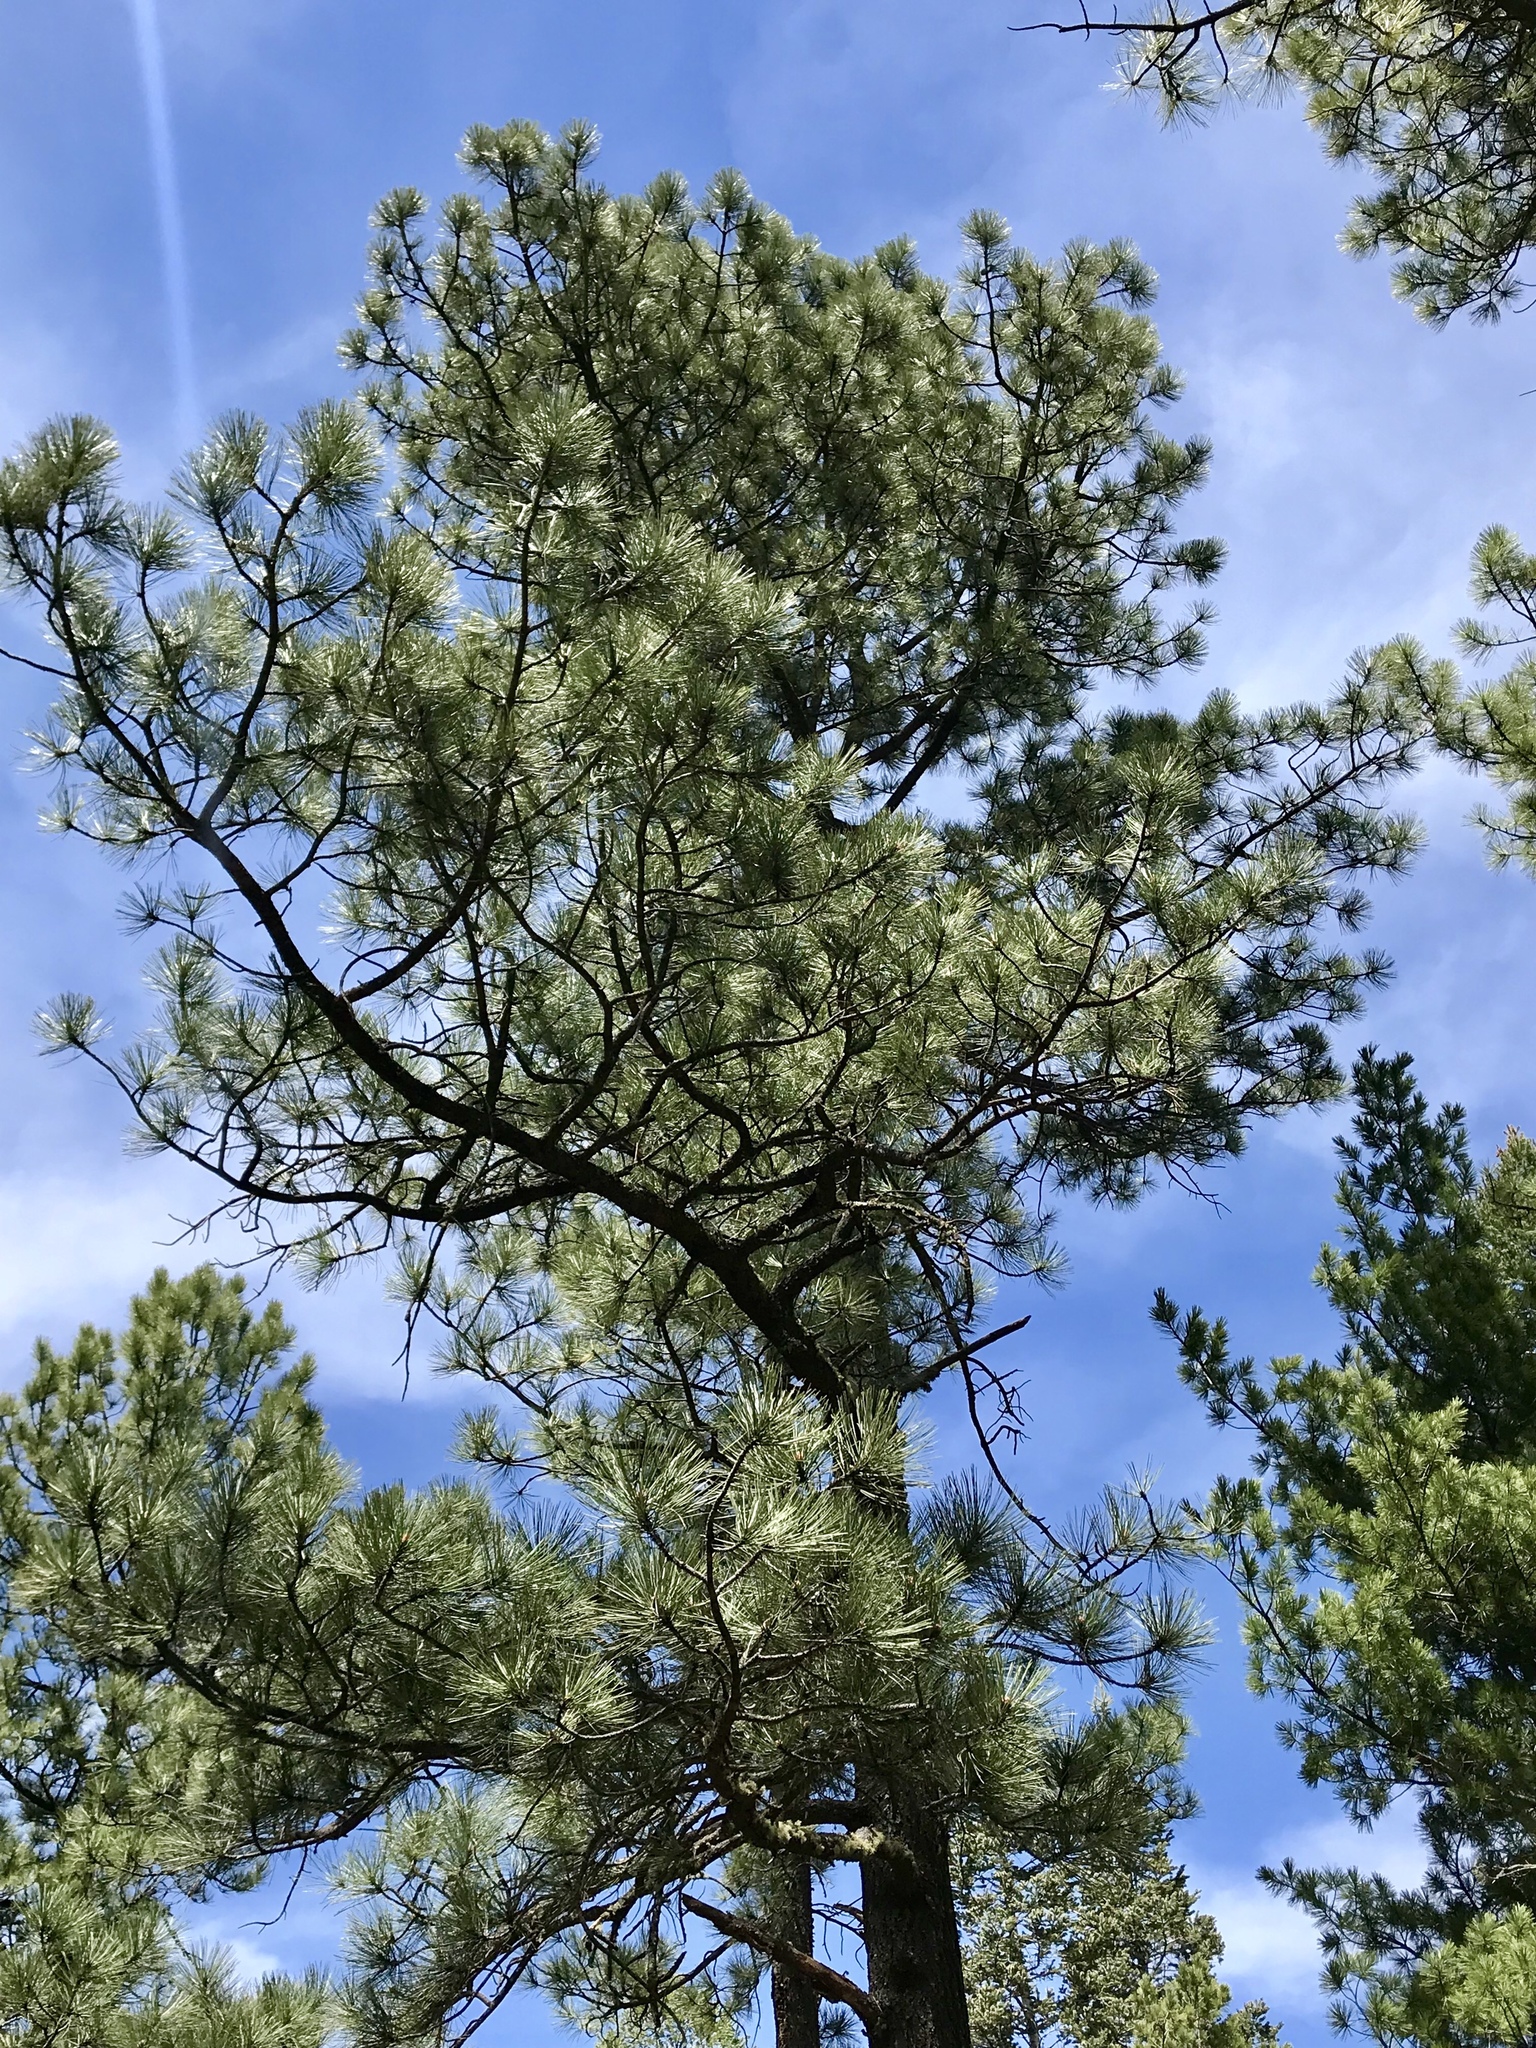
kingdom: Plantae
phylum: Tracheophyta
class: Pinopsida
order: Pinales
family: Pinaceae
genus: Pinus
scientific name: Pinus strobiformis
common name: Southwestern white pine
